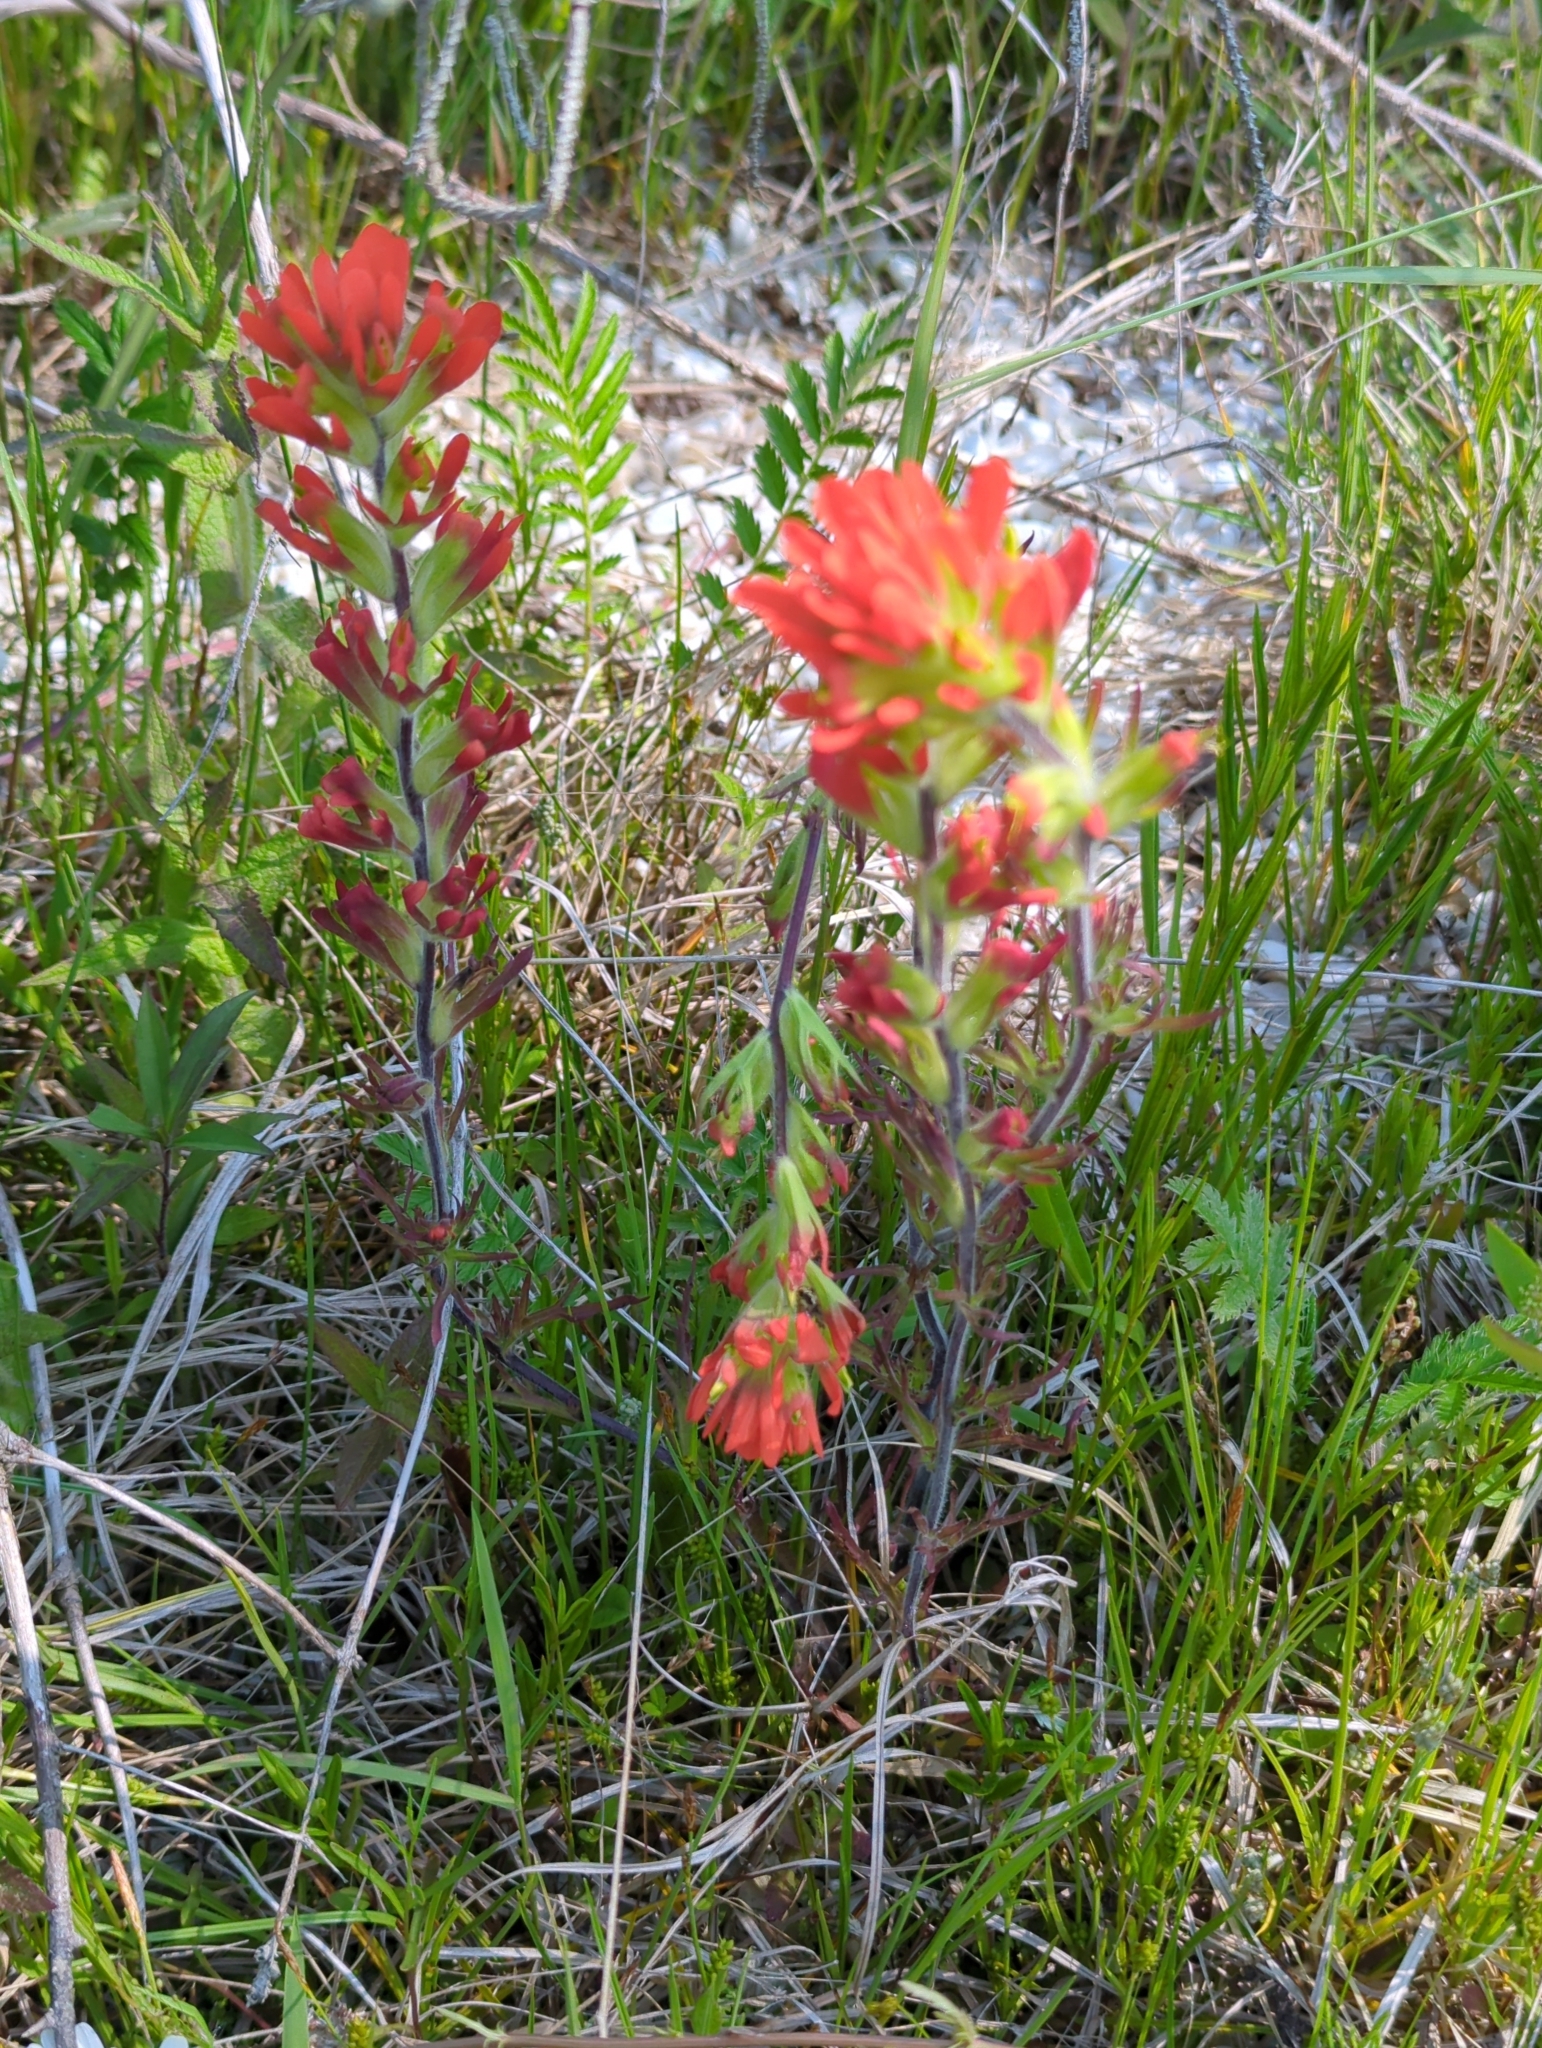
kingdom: Plantae
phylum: Tracheophyta
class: Magnoliopsida
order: Lamiales
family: Orobanchaceae
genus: Castilleja
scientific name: Castilleja coccinea
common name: Scarlet paintbrush
